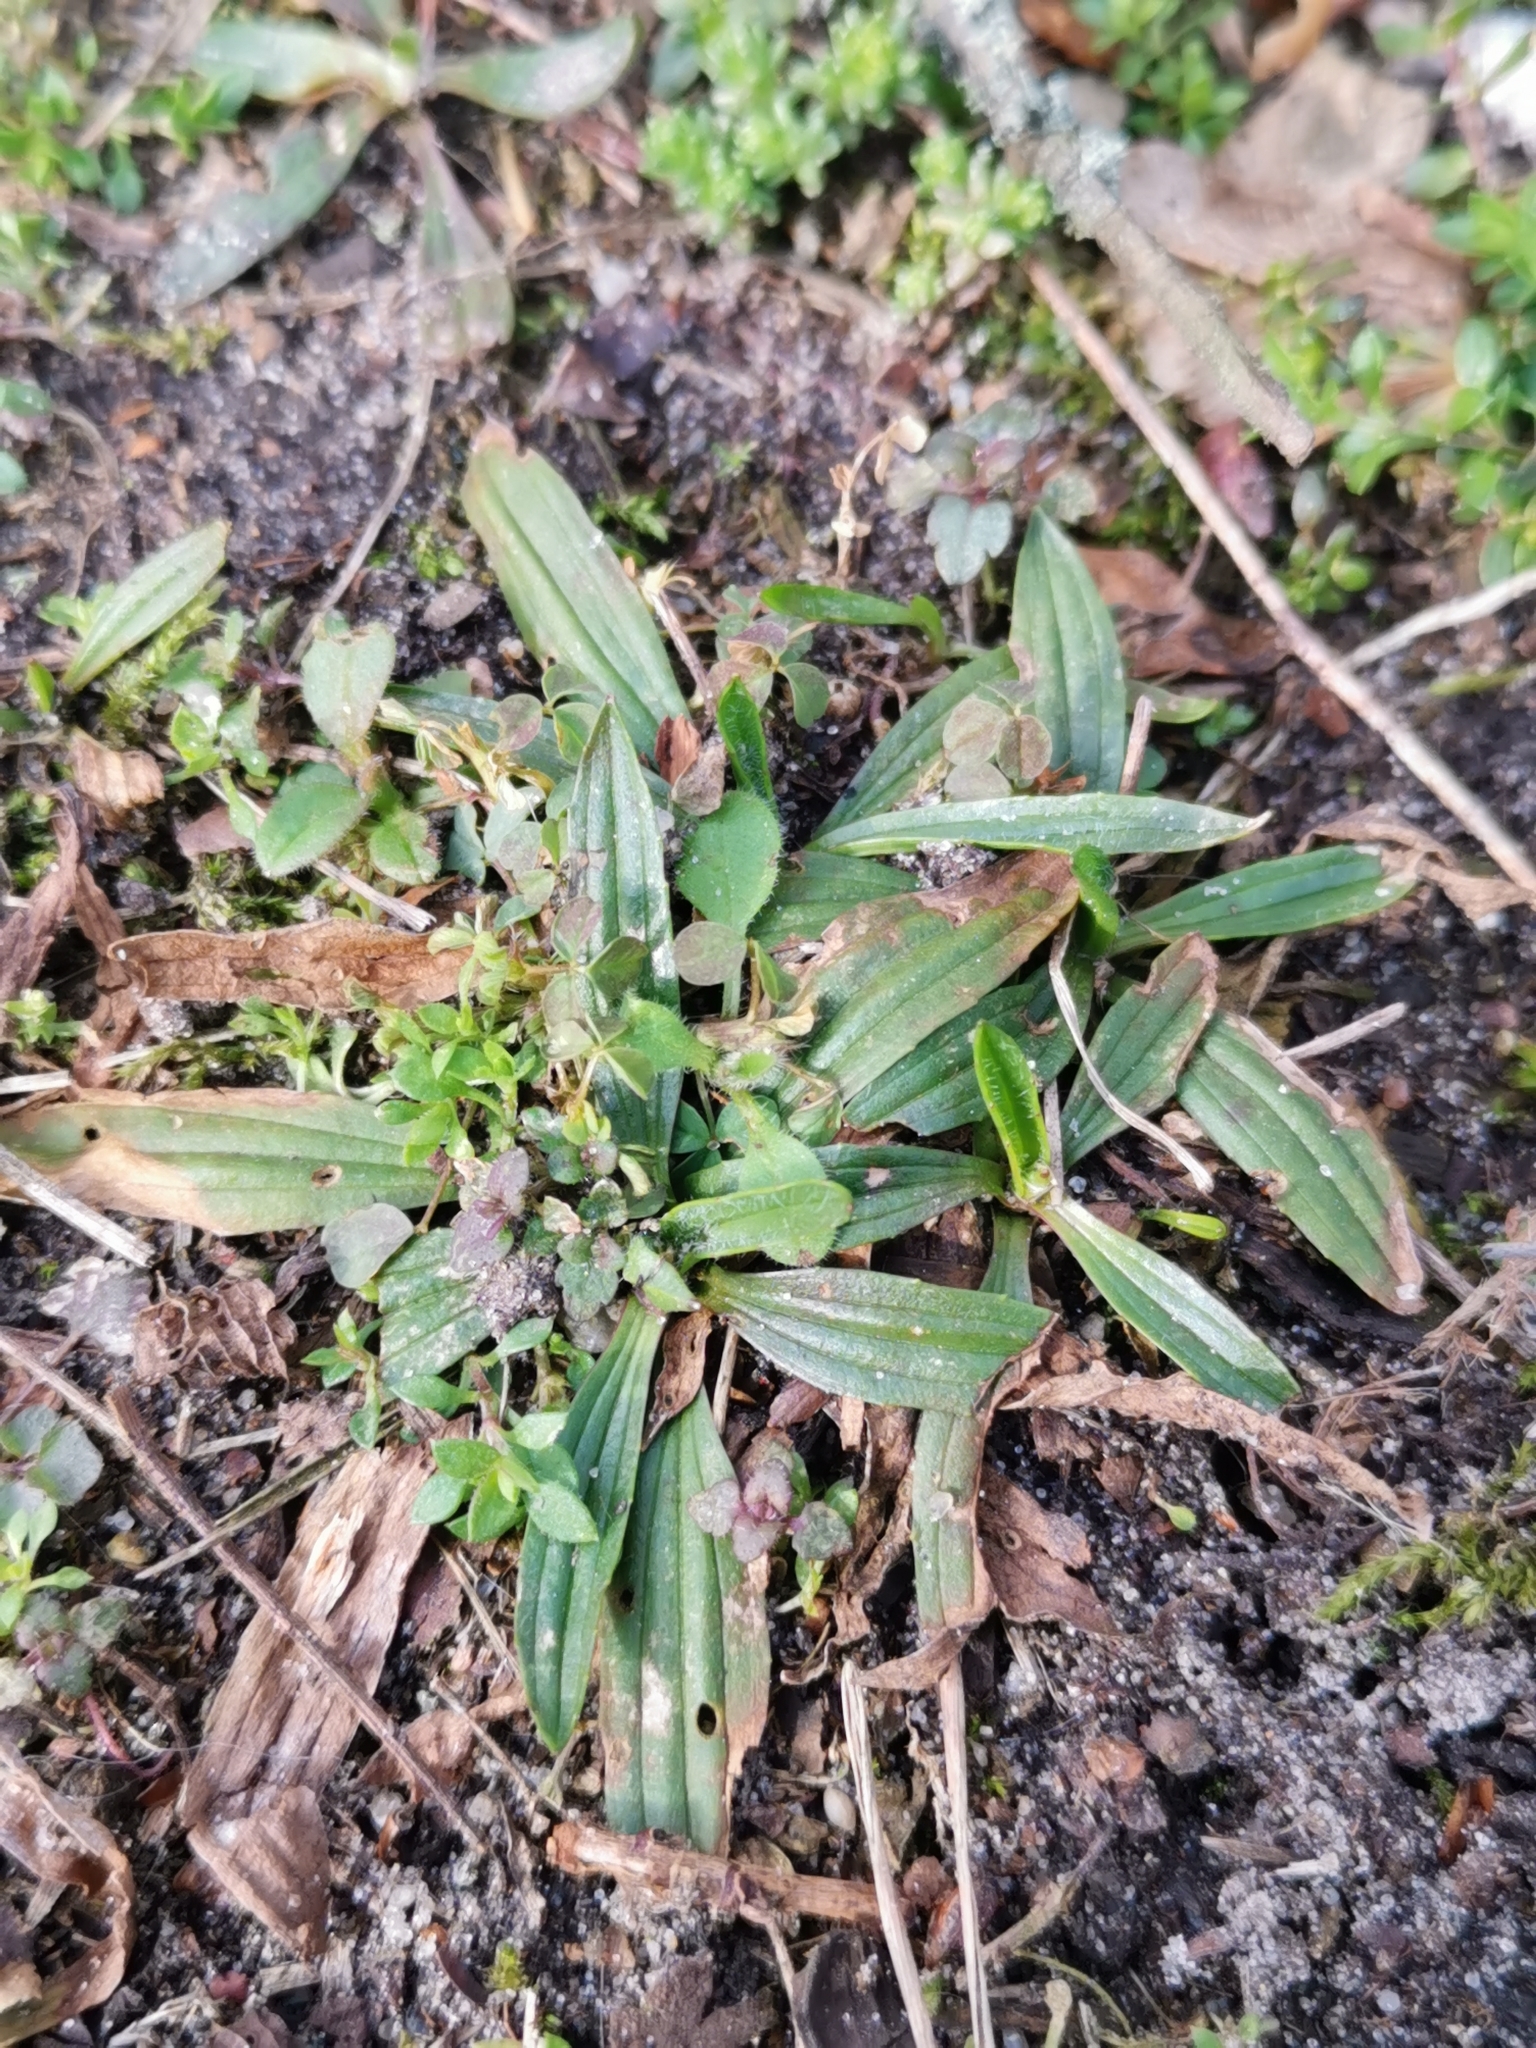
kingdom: Plantae
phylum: Tracheophyta
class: Magnoliopsida
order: Lamiales
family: Plantaginaceae
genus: Plantago
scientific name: Plantago lanceolata
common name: Ribwort plantain
